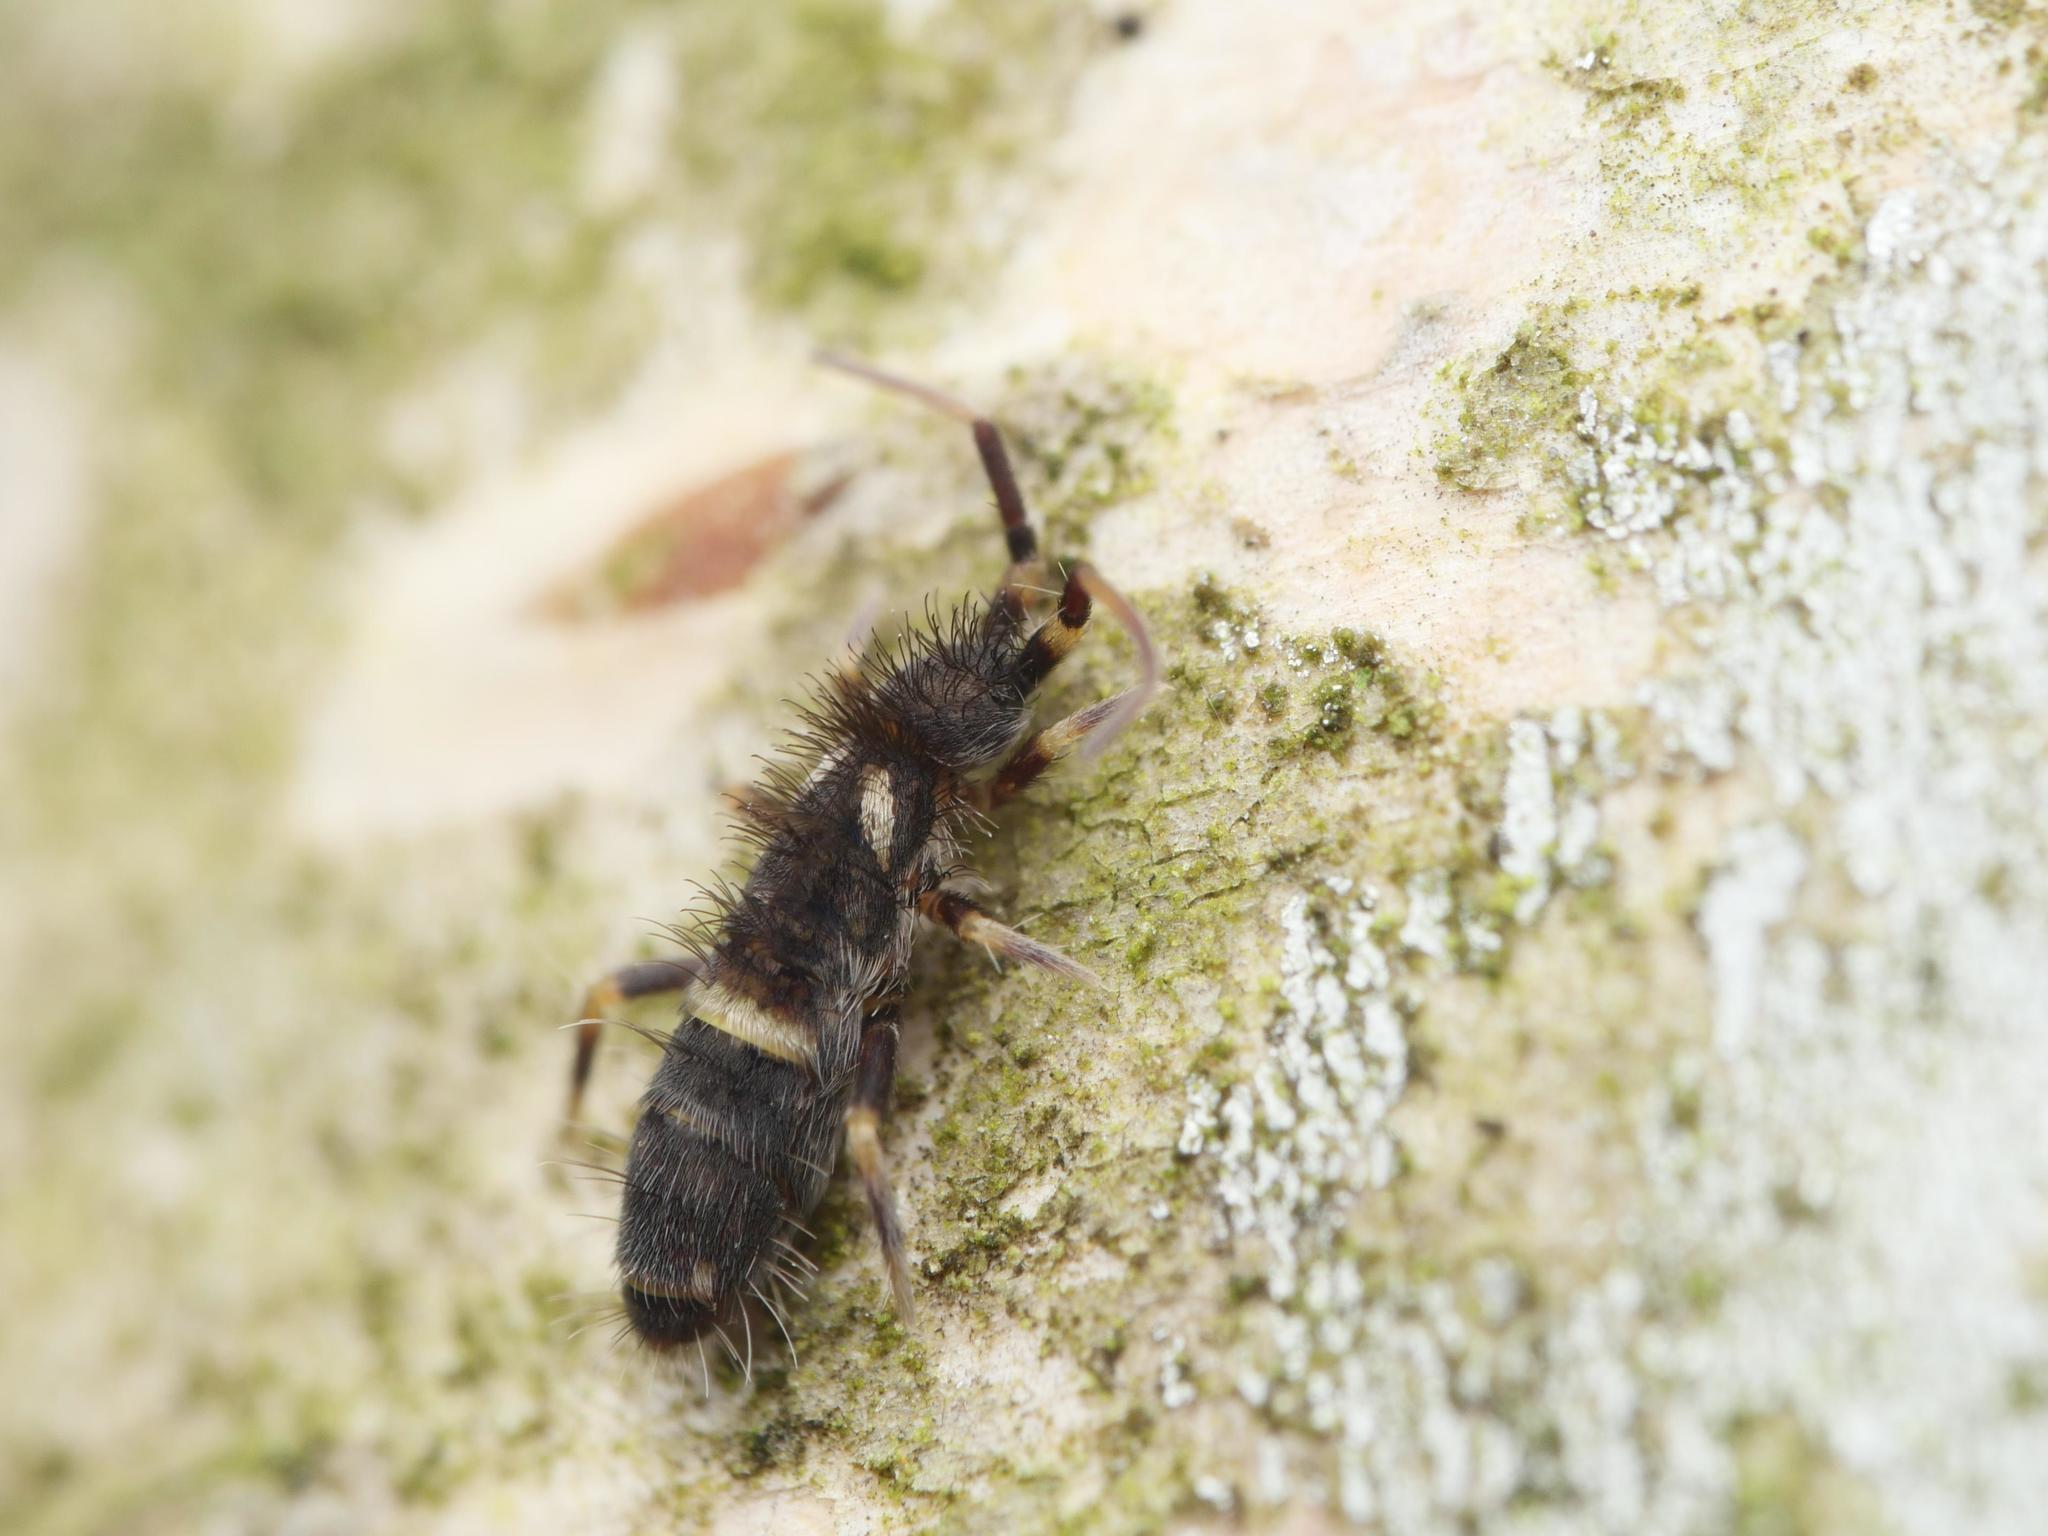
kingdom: Animalia
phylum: Arthropoda
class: Collembola
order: Entomobryomorpha
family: Orchesellidae
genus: Orchesella
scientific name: Orchesella cincta
